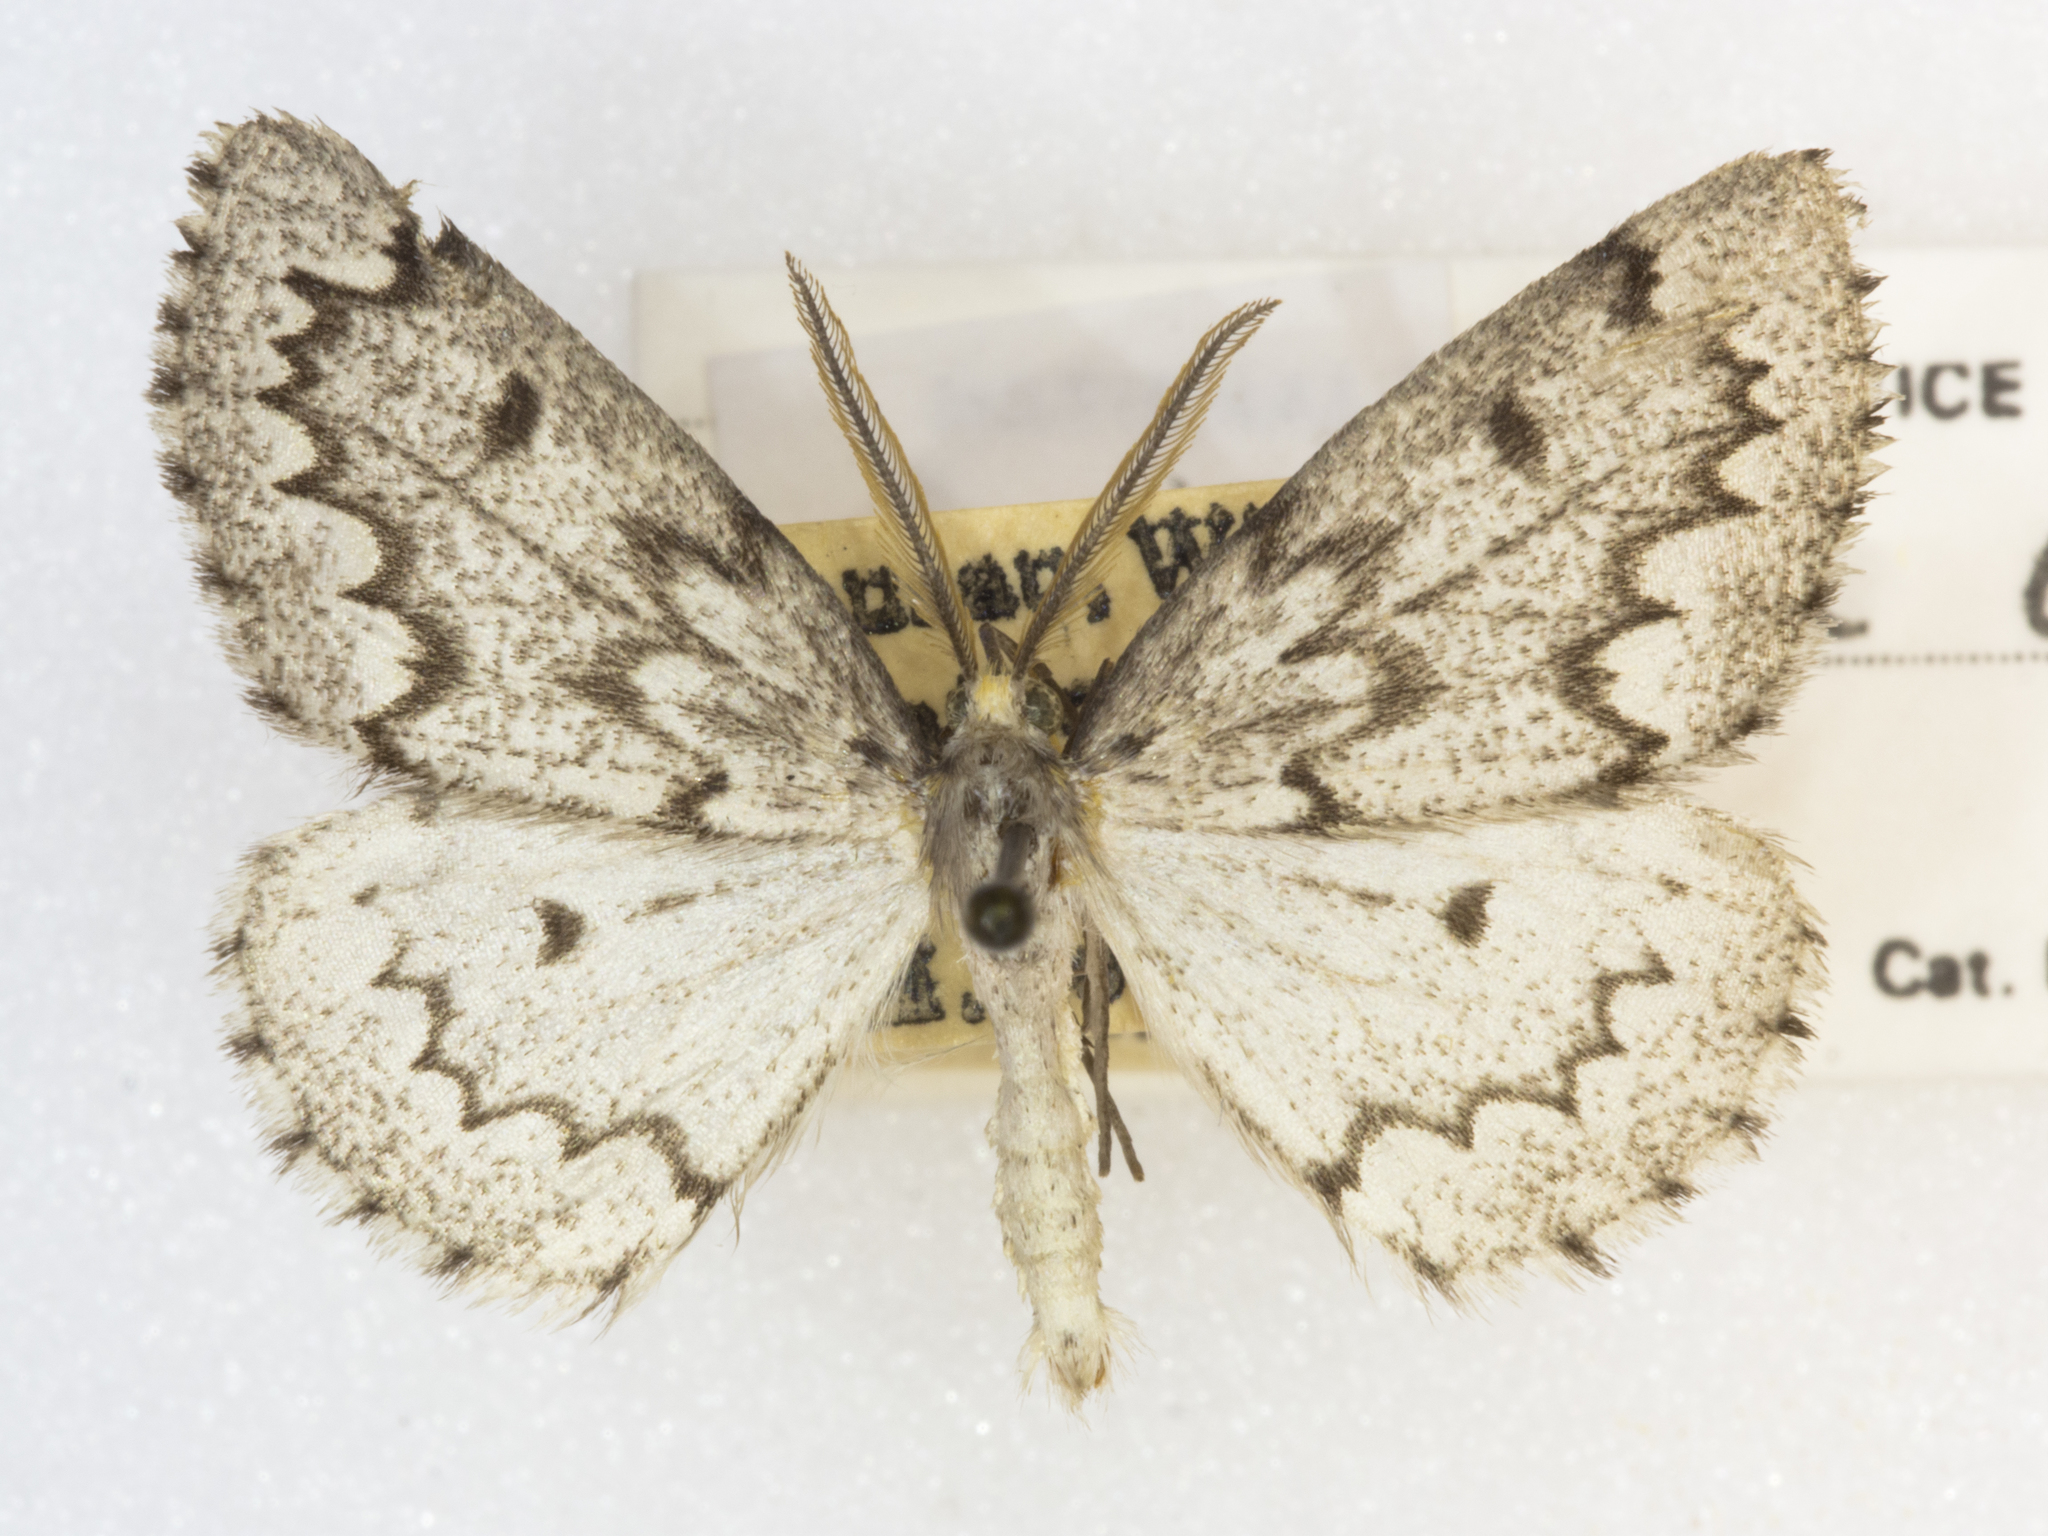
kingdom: Animalia
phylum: Arthropoda
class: Insecta
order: Lepidoptera
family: Geometridae
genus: Nepytia
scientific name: Nepytia canosaria
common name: False hemlock looper
